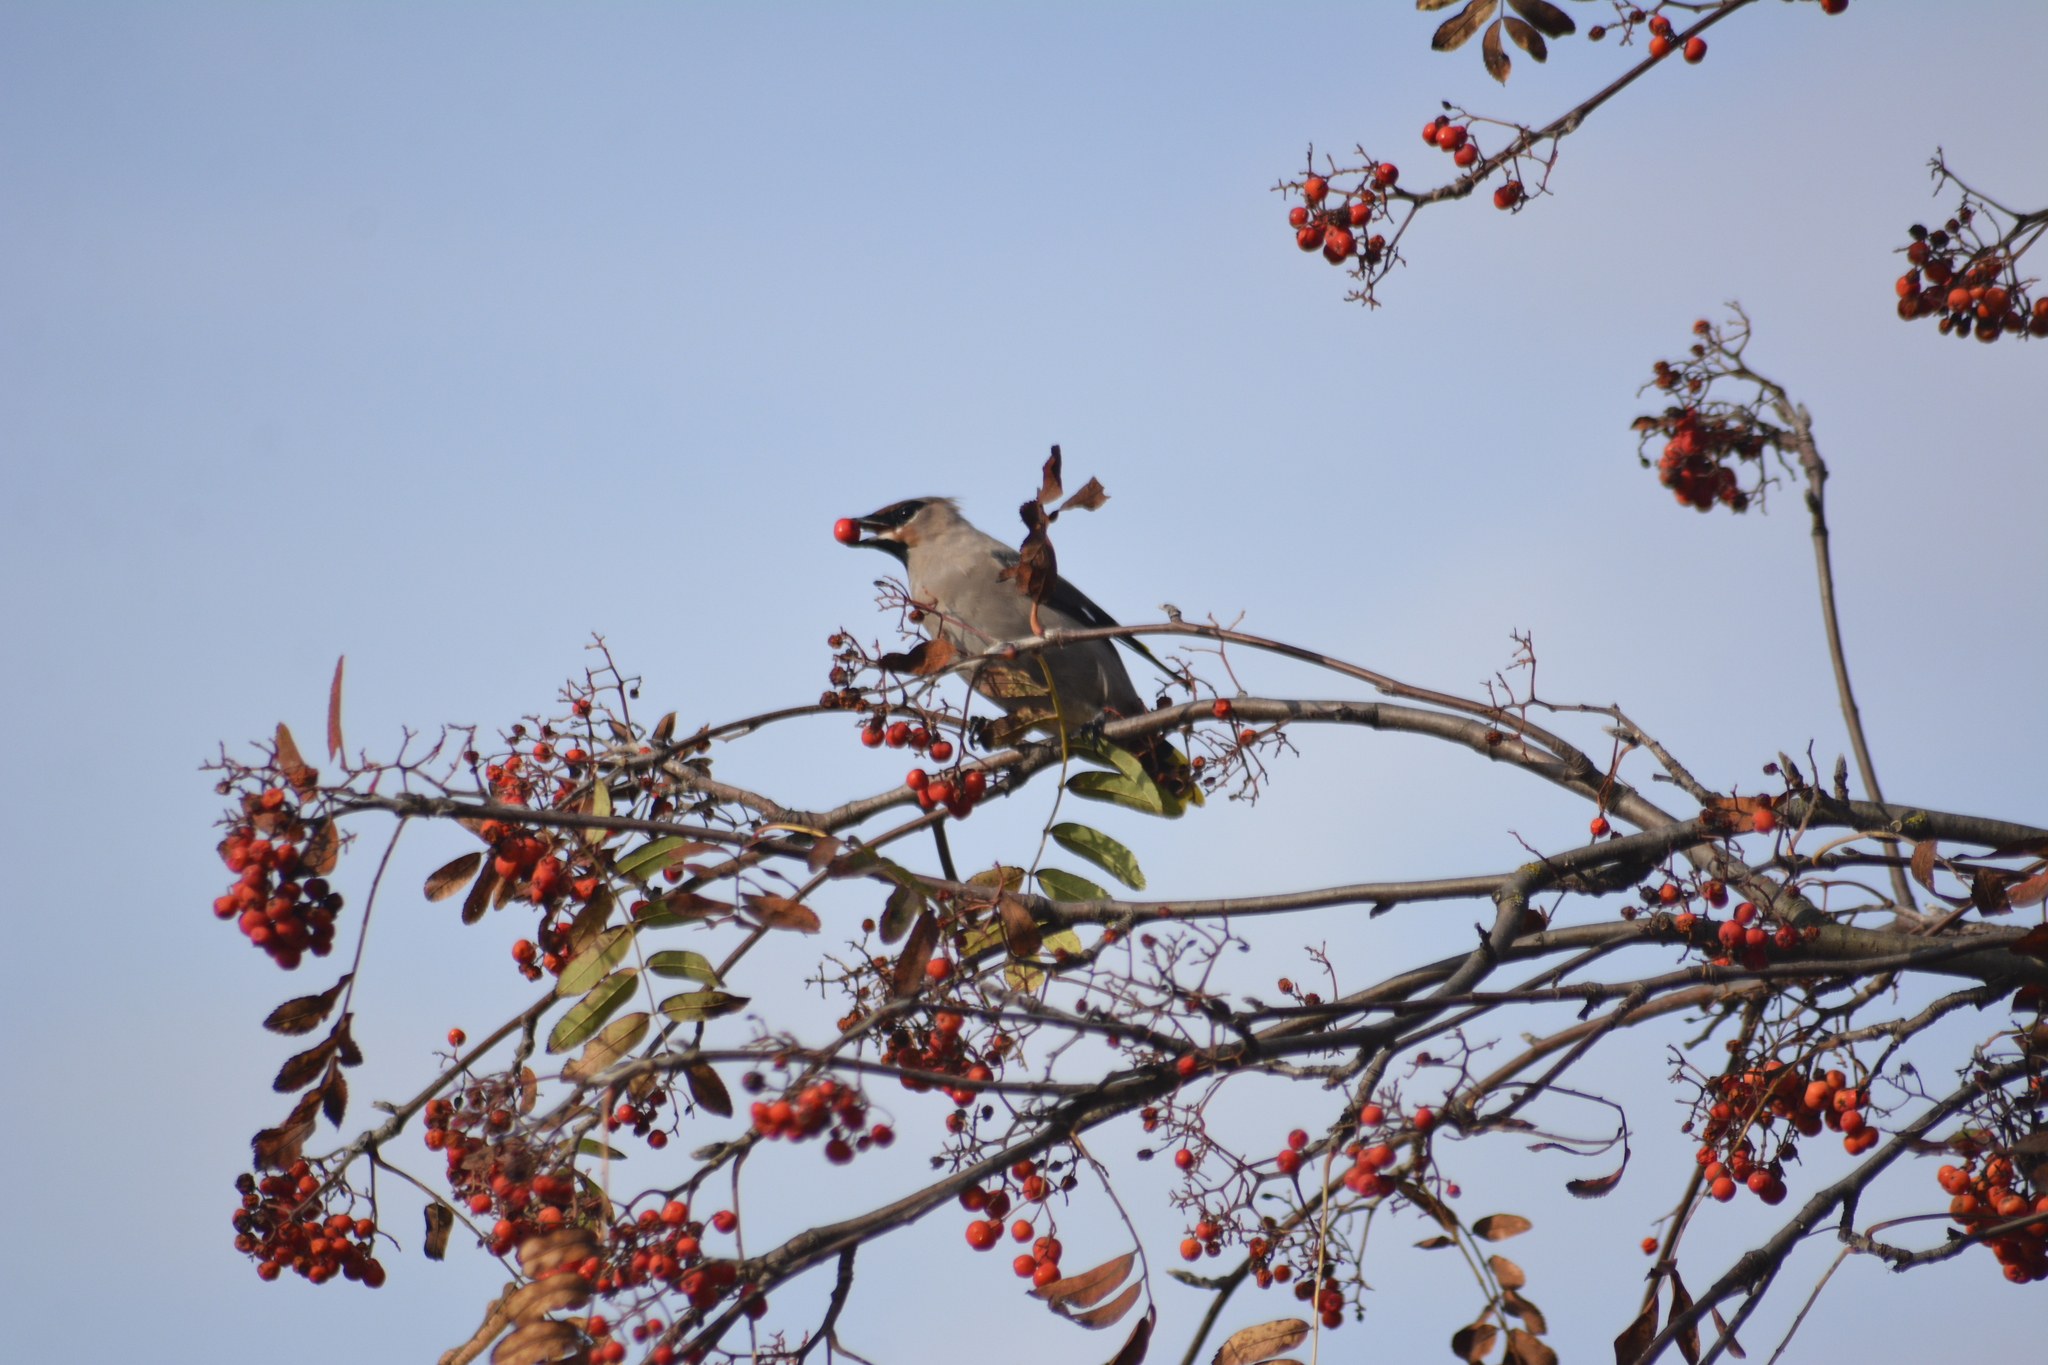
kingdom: Animalia
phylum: Chordata
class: Aves
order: Passeriformes
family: Bombycillidae
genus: Bombycilla
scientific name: Bombycilla garrulus
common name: Bohemian waxwing
